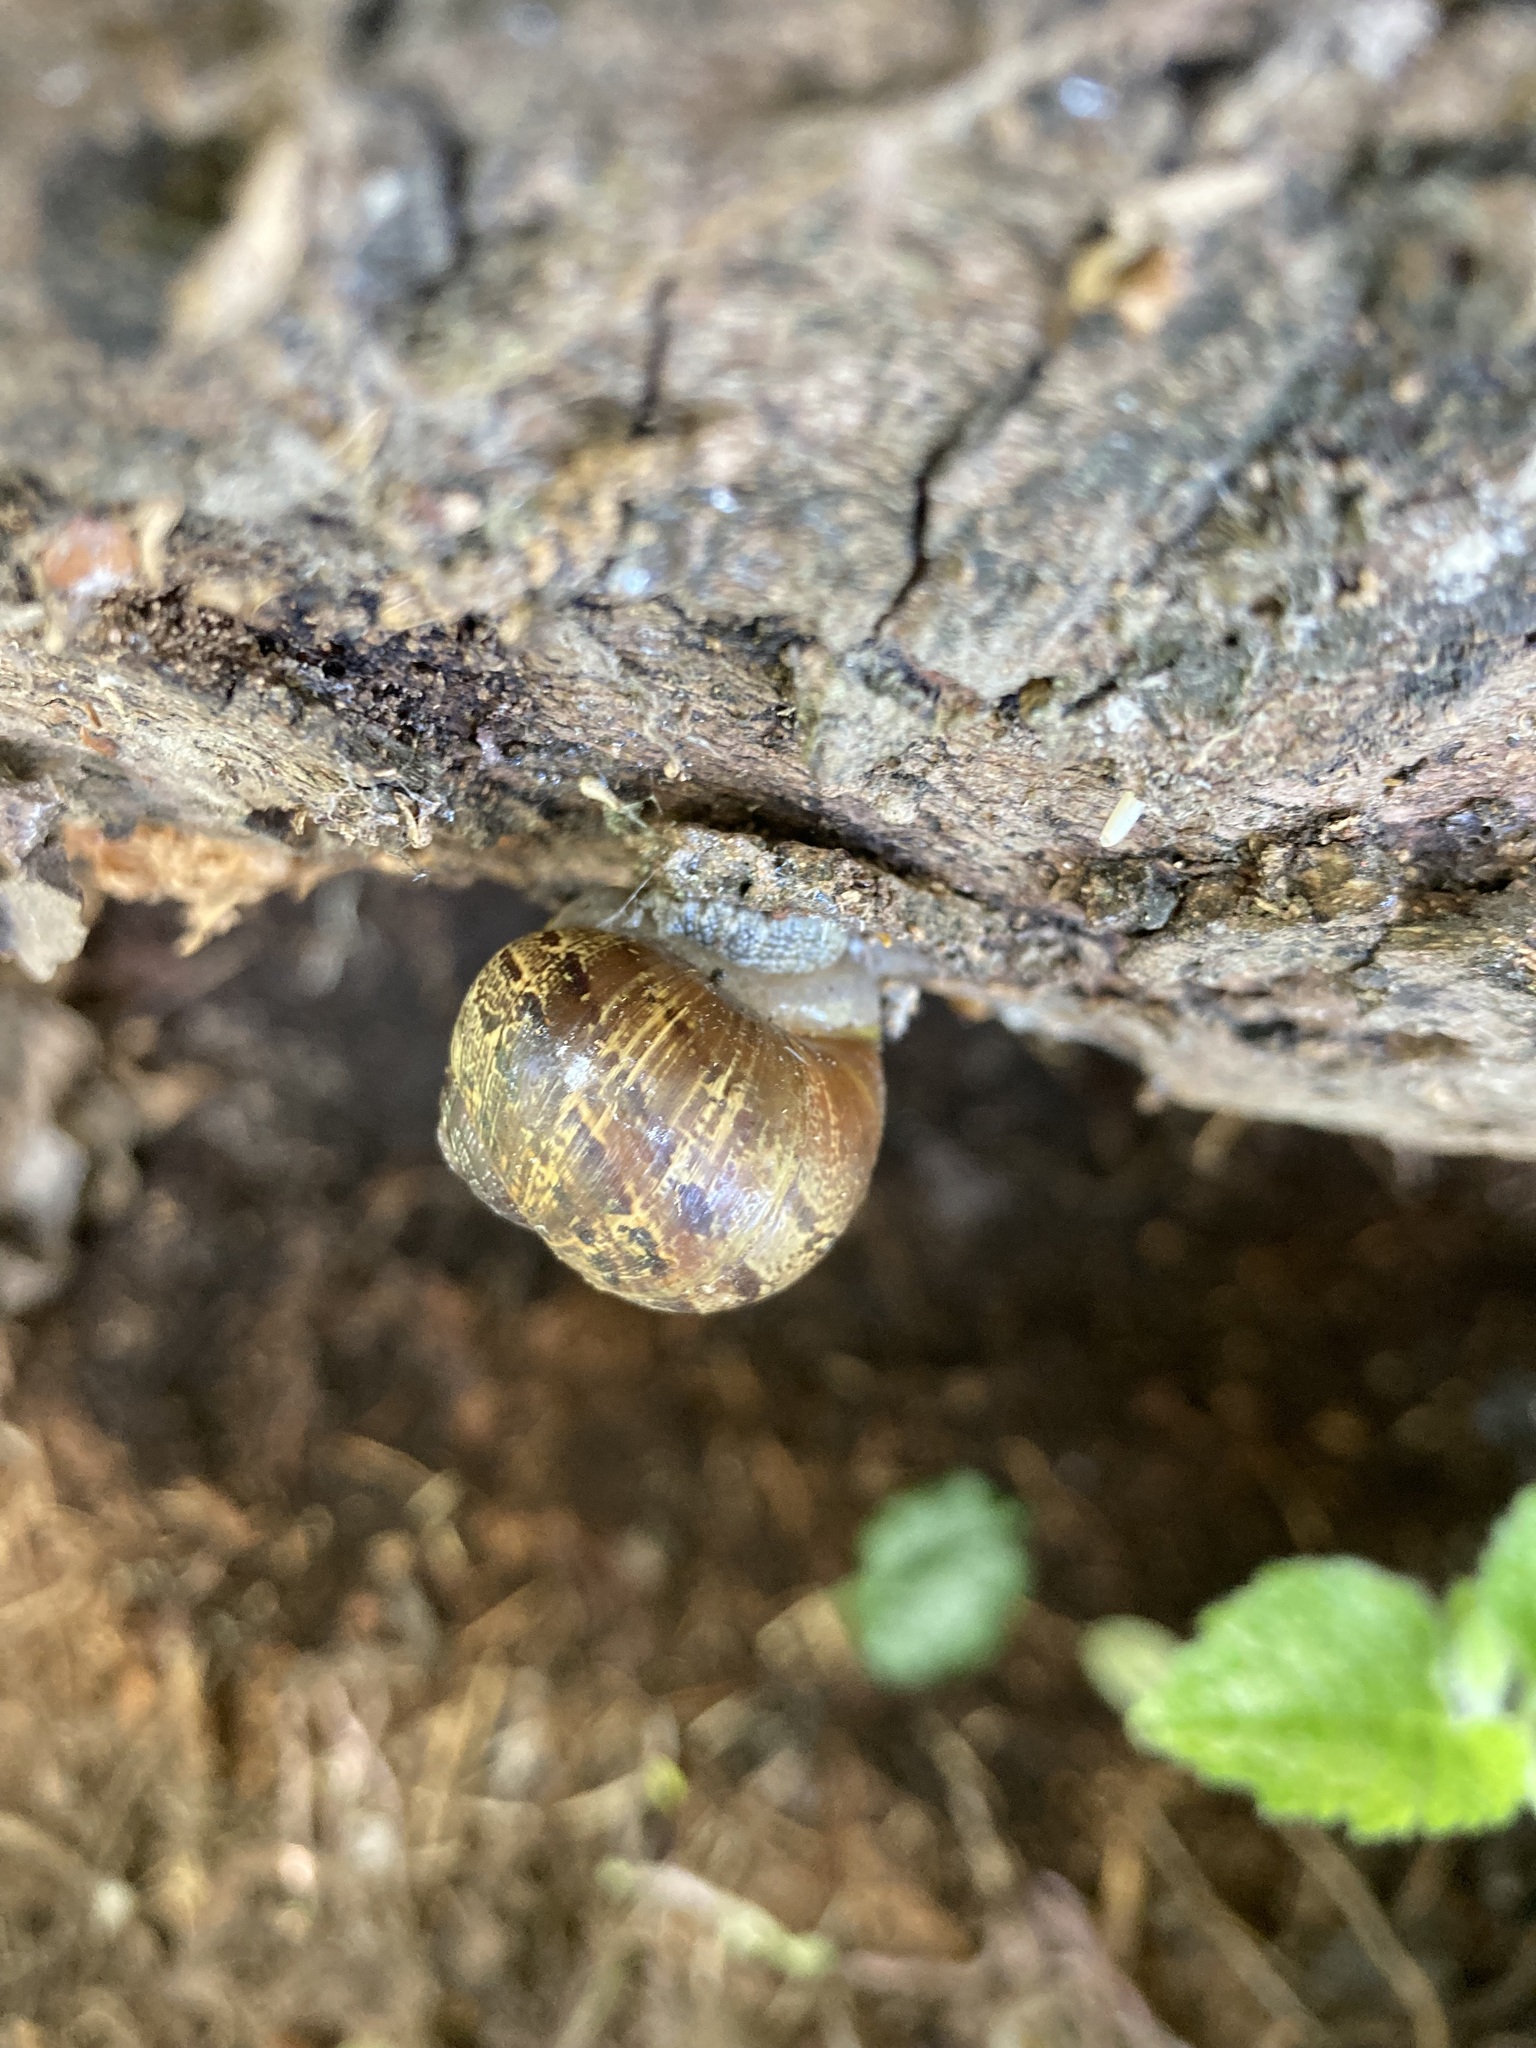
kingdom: Animalia
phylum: Mollusca
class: Gastropoda
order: Stylommatophora
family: Helicidae
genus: Cornu
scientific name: Cornu aspersum
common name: Brown garden snail
